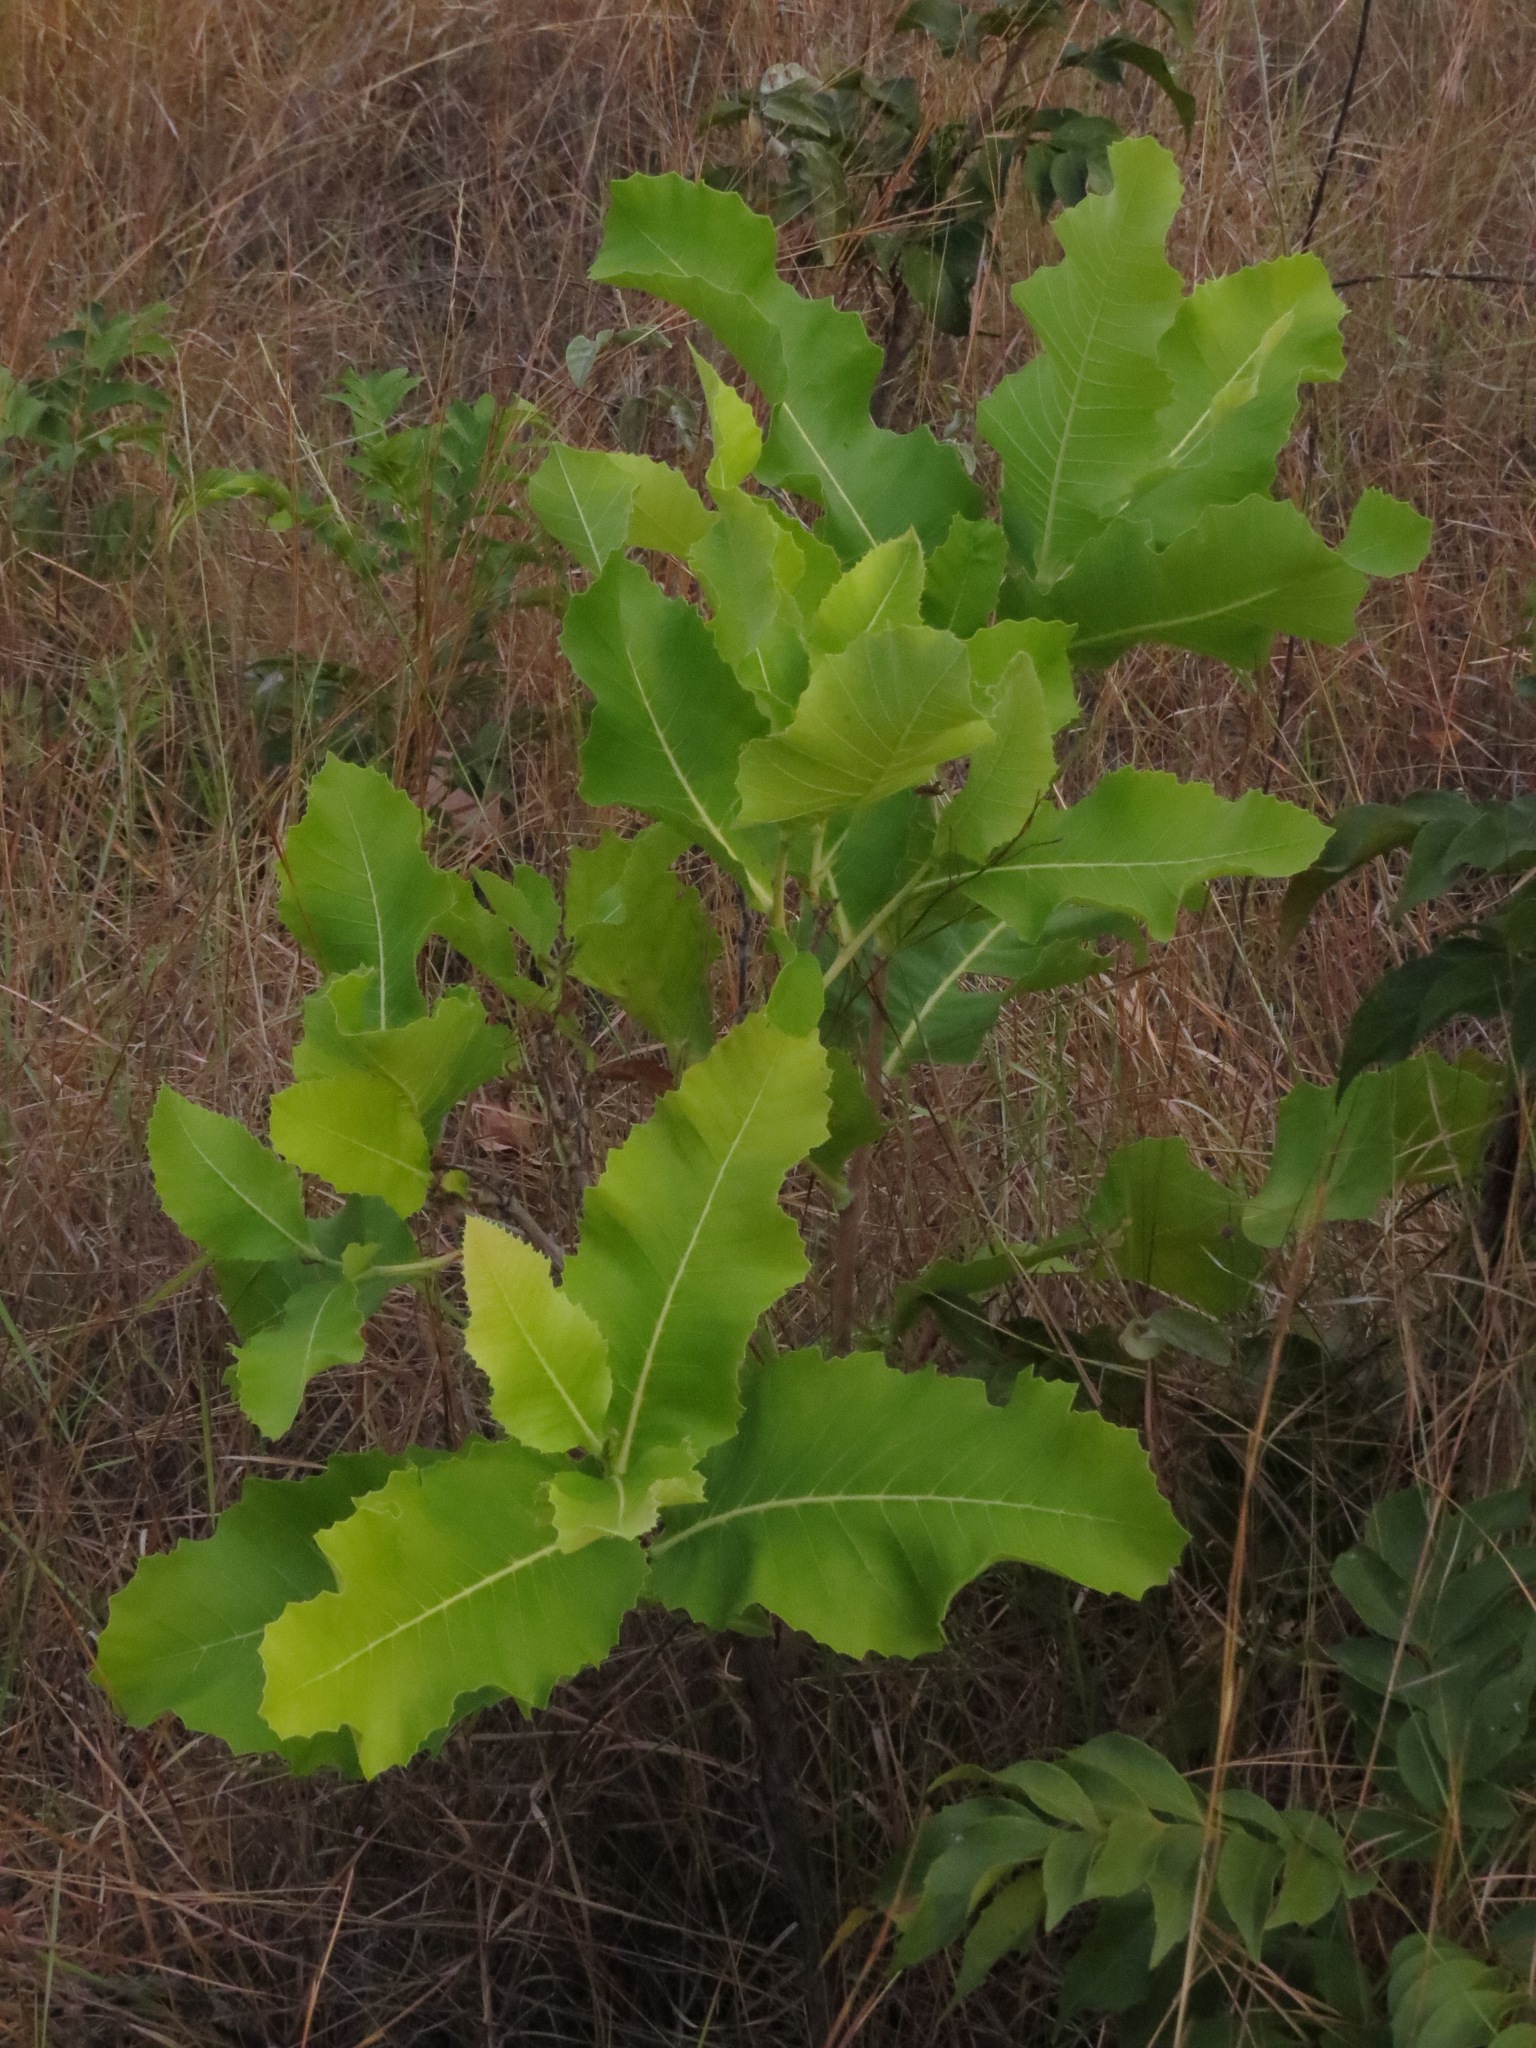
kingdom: Plantae
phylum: Tracheophyta
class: Magnoliopsida
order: Dilleniales
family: Dilleniaceae
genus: Curatella
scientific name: Curatella americana
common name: Sandpaper tree
